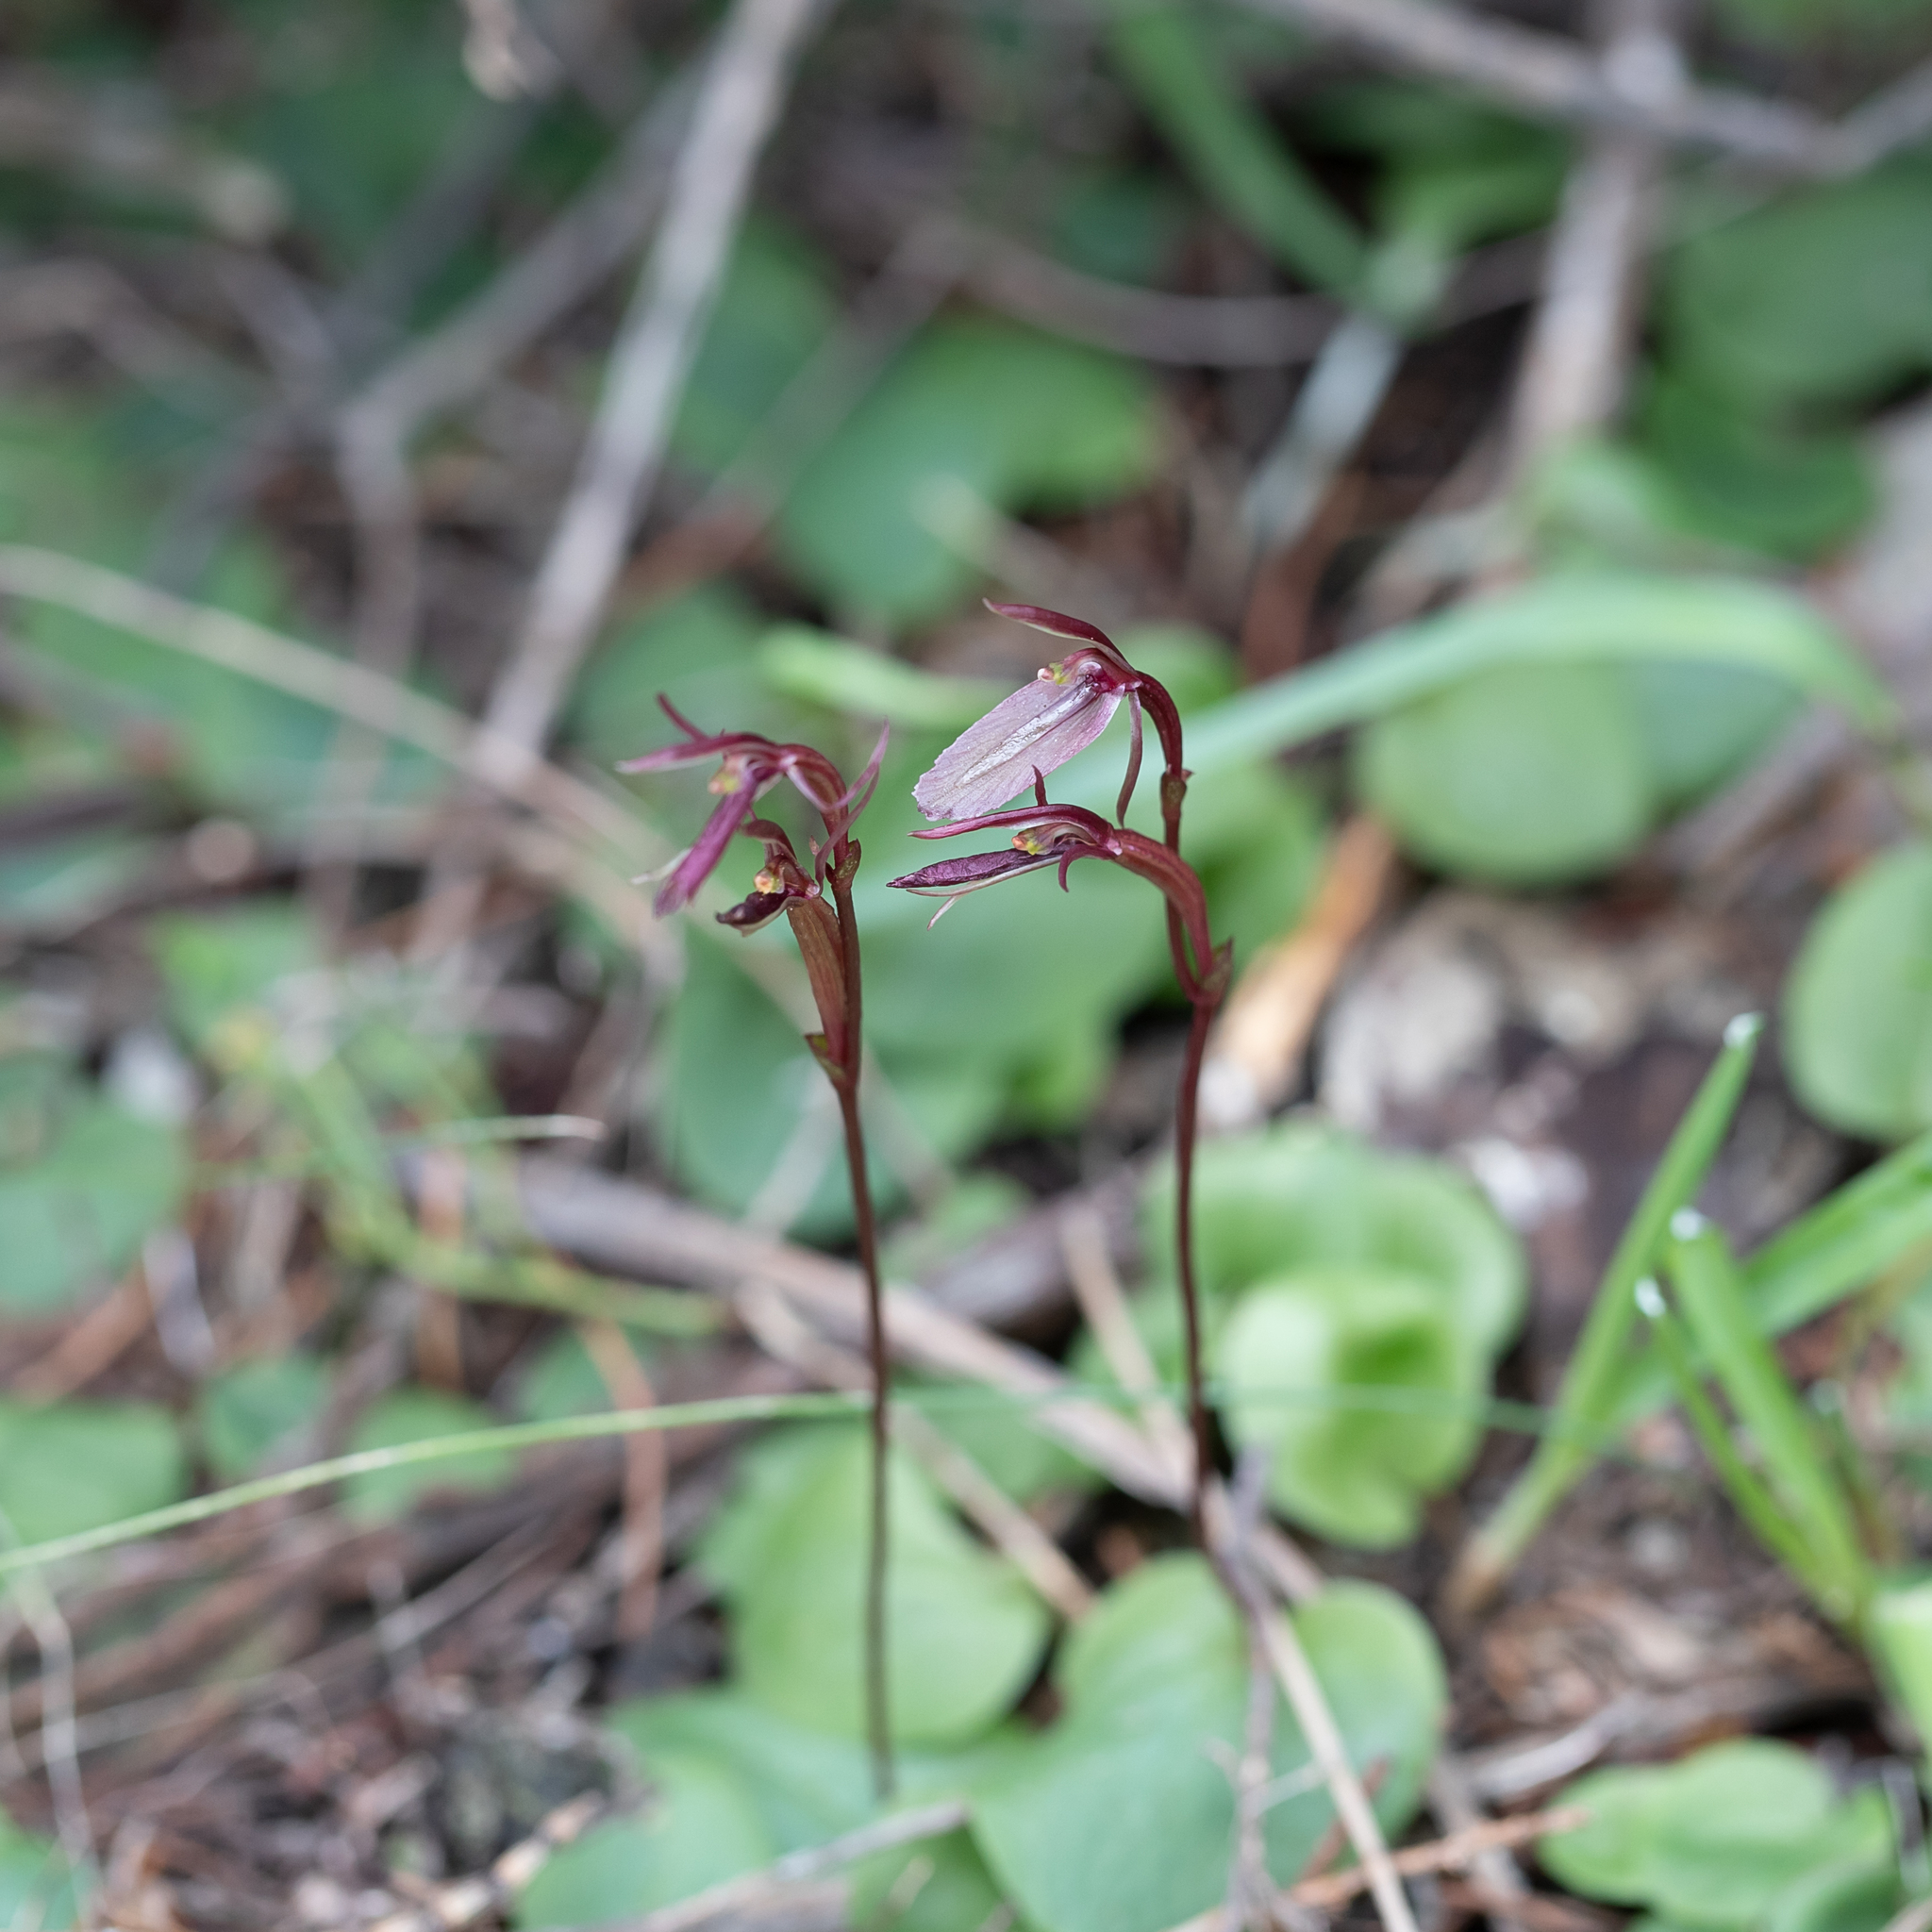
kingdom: Plantae
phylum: Tracheophyta
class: Liliopsida
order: Asparagales
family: Orchidaceae
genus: Cyrtostylis
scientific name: Cyrtostylis robusta
